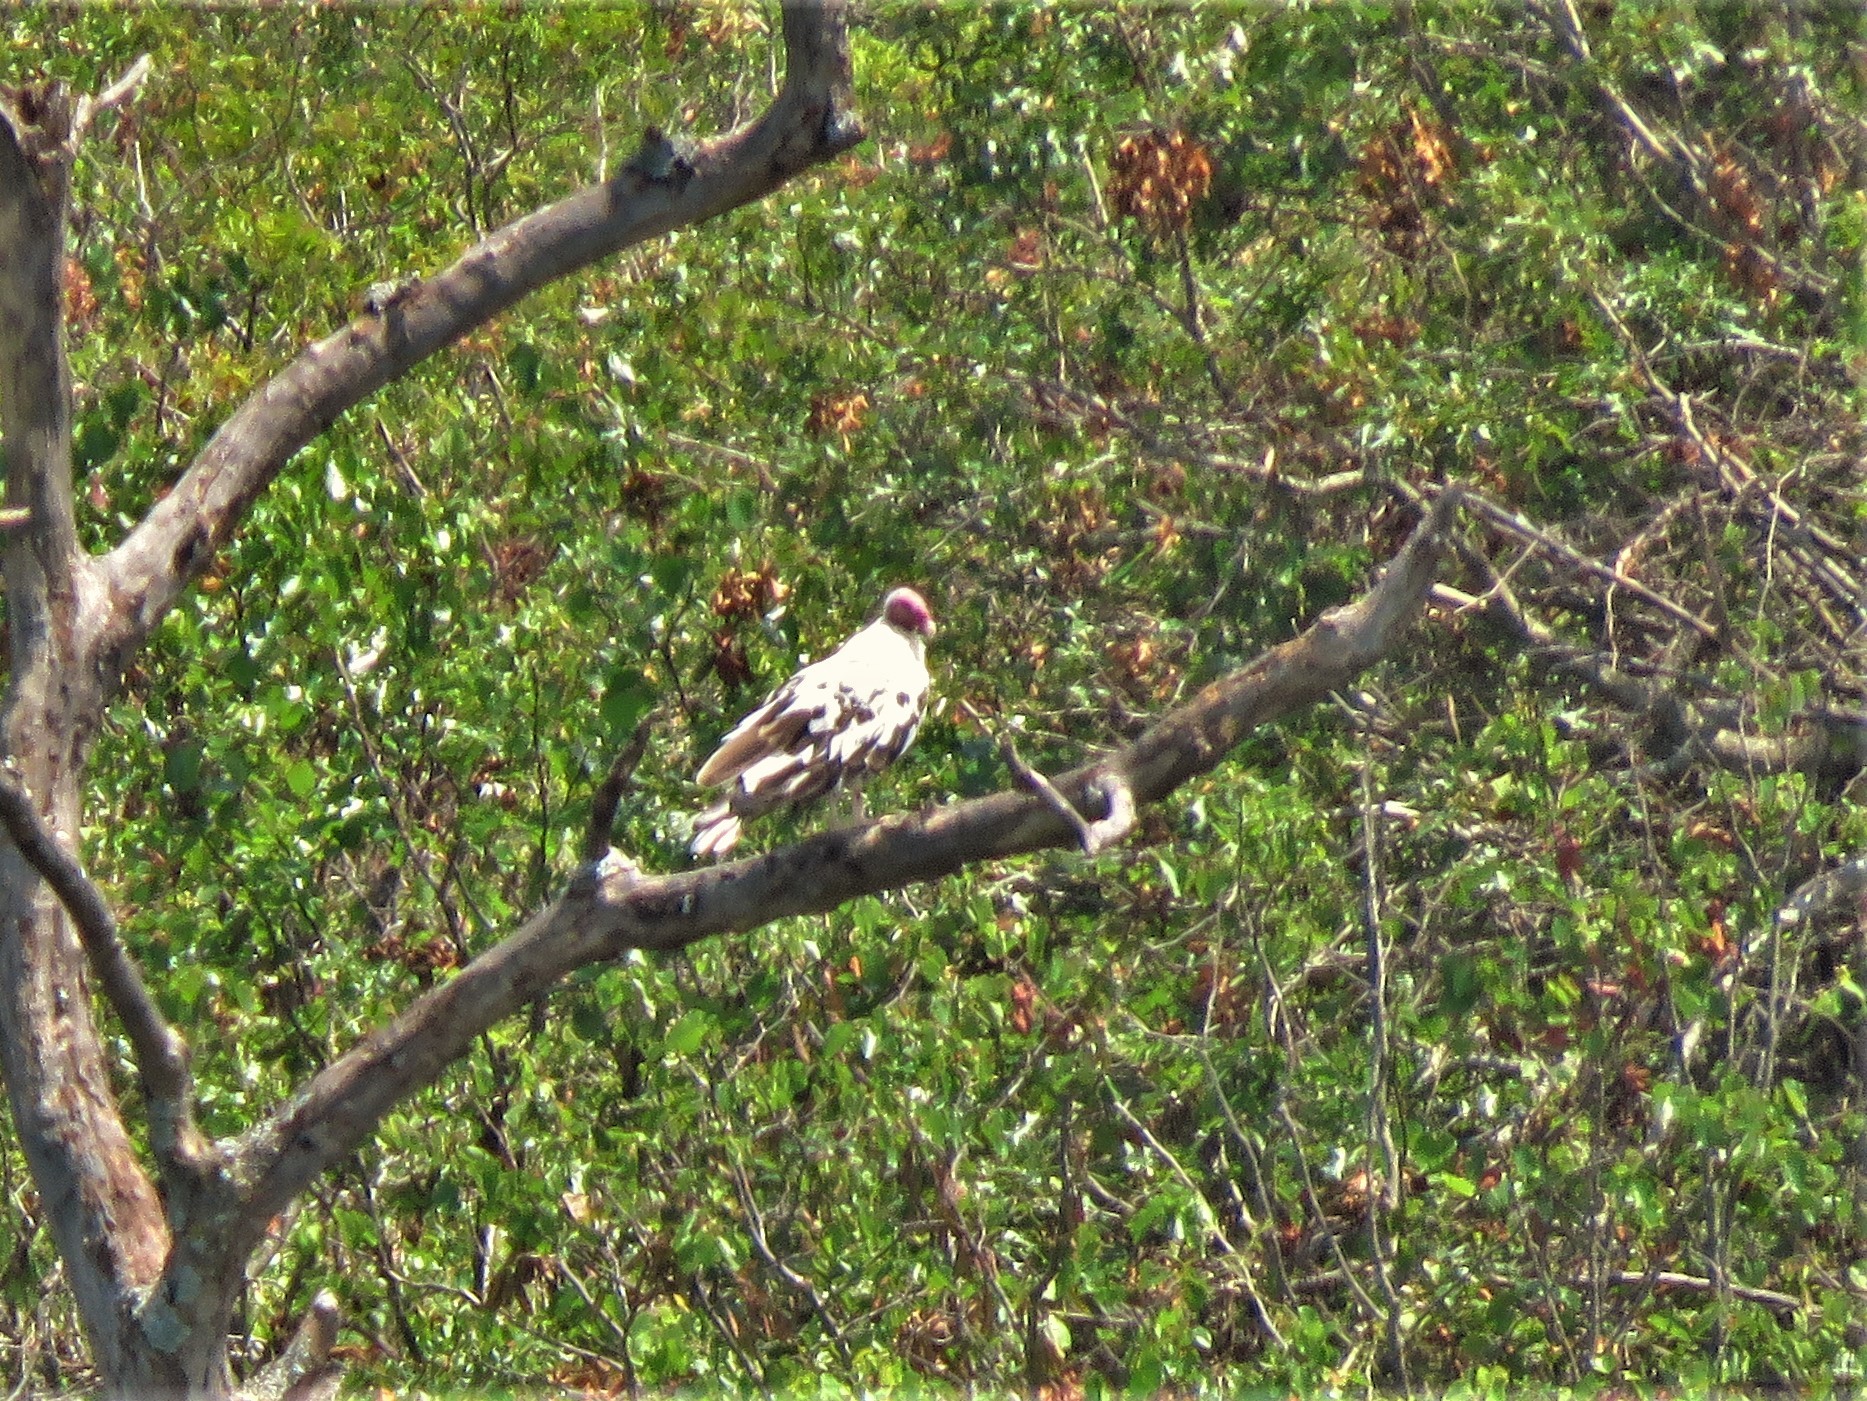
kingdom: Animalia
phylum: Chordata
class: Aves
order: Accipitriformes
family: Cathartidae
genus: Cathartes
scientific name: Cathartes aura
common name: Turkey vulture
